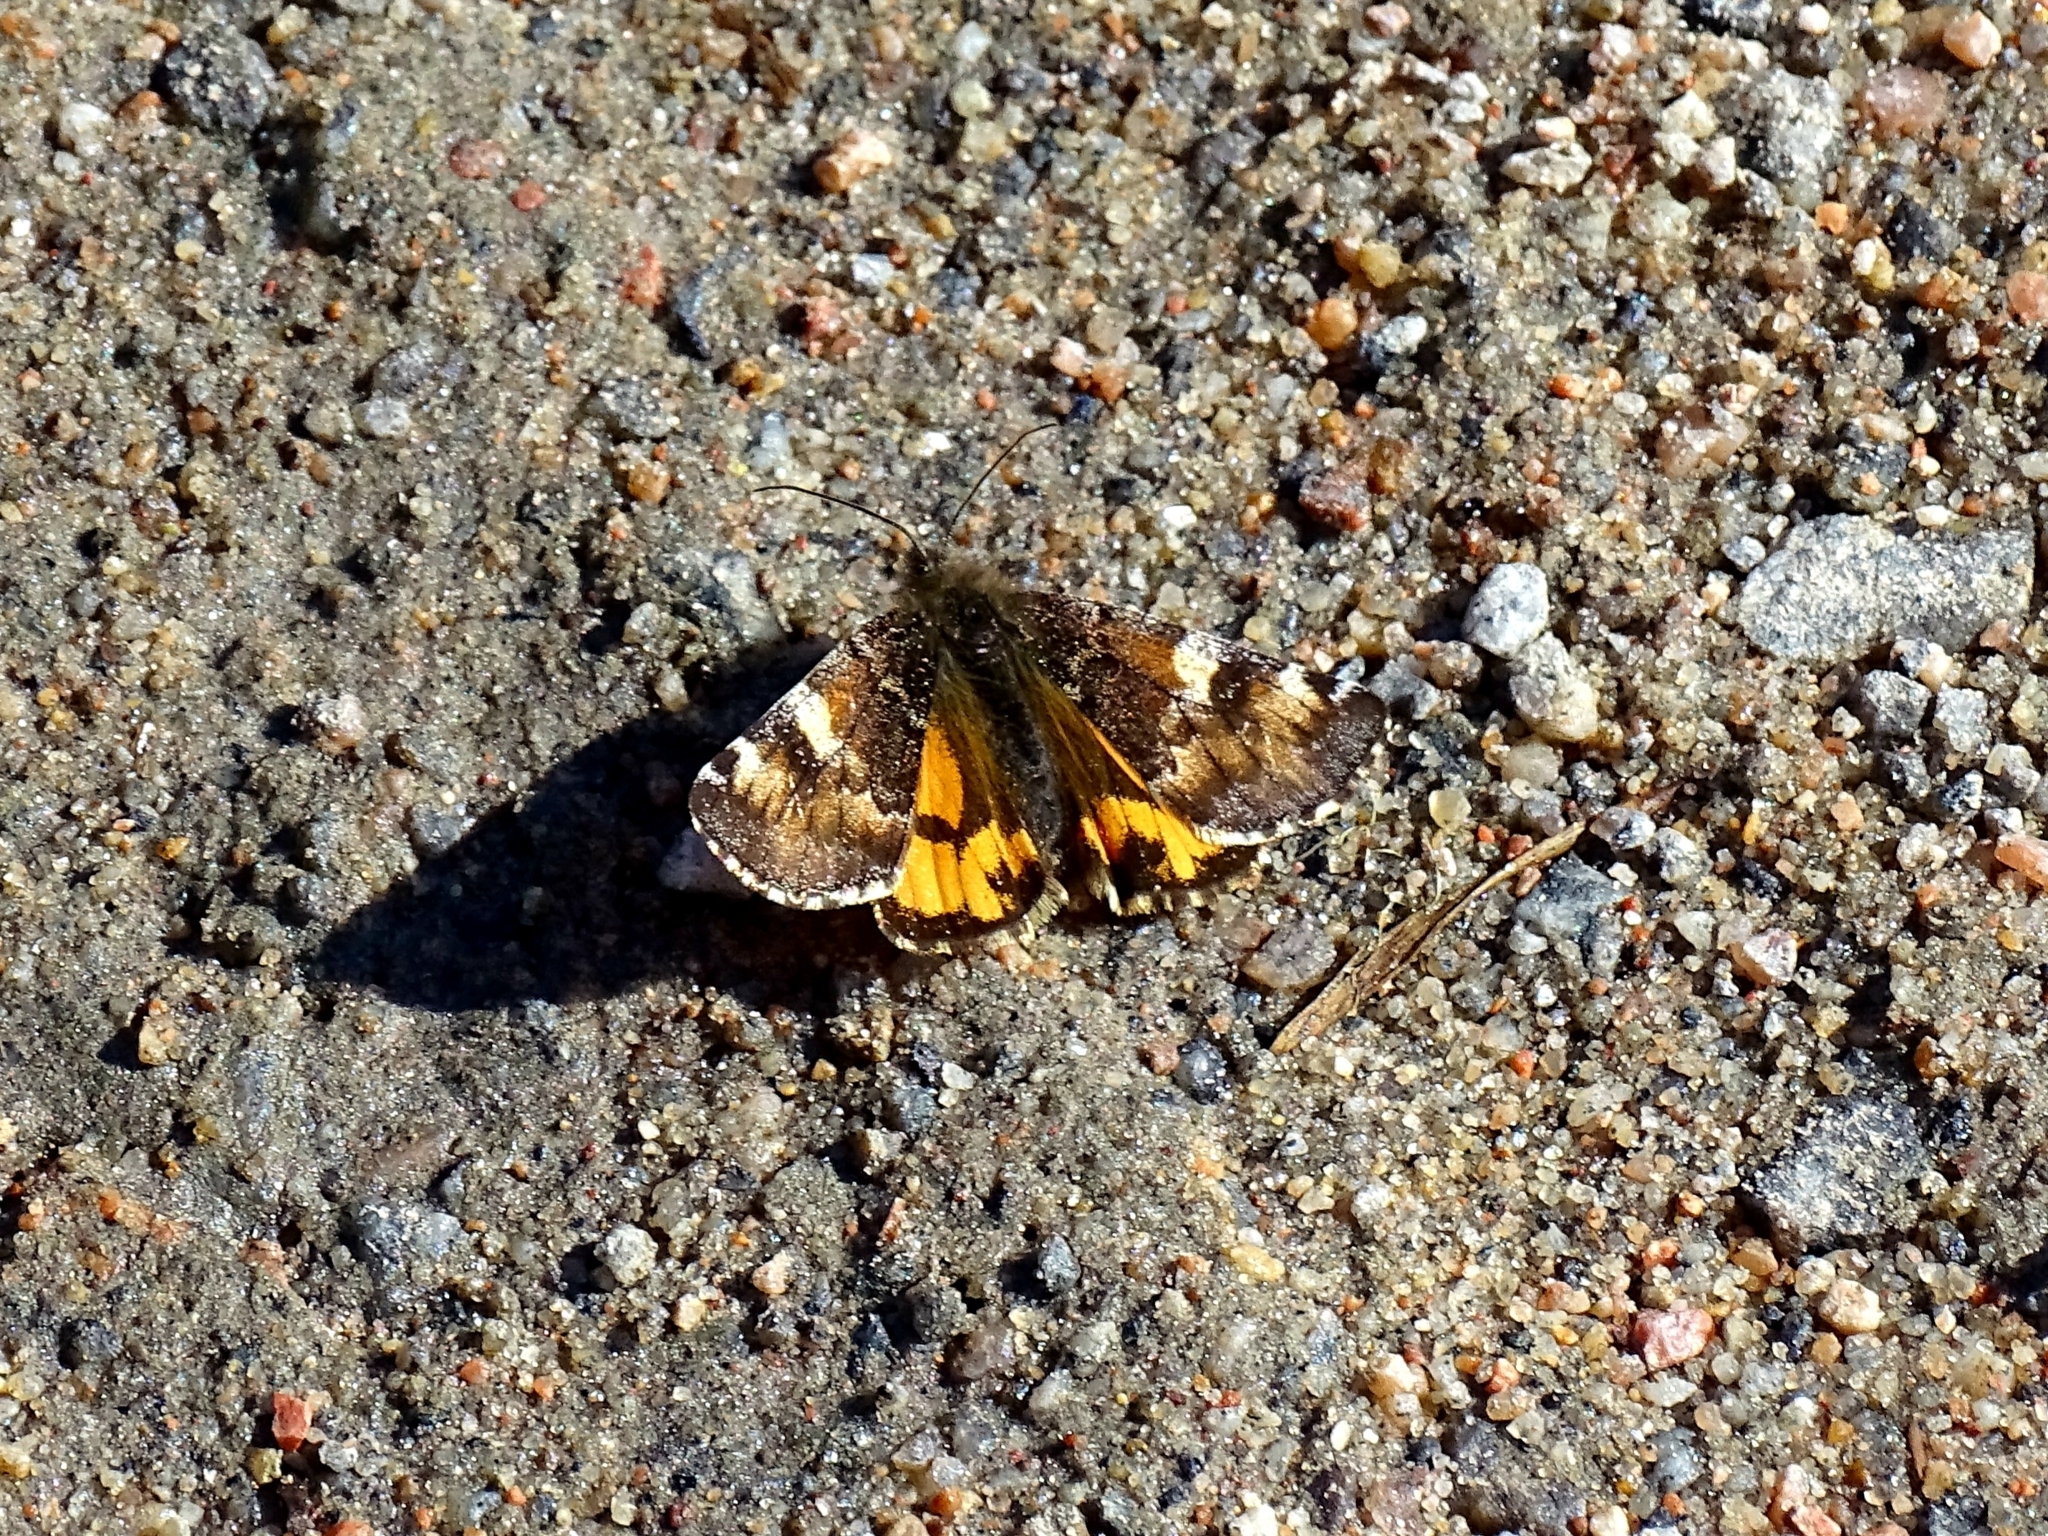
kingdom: Animalia
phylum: Arthropoda
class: Insecta
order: Lepidoptera
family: Geometridae
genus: Archiearis
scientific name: Archiearis parthenias
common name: Orange underwing
